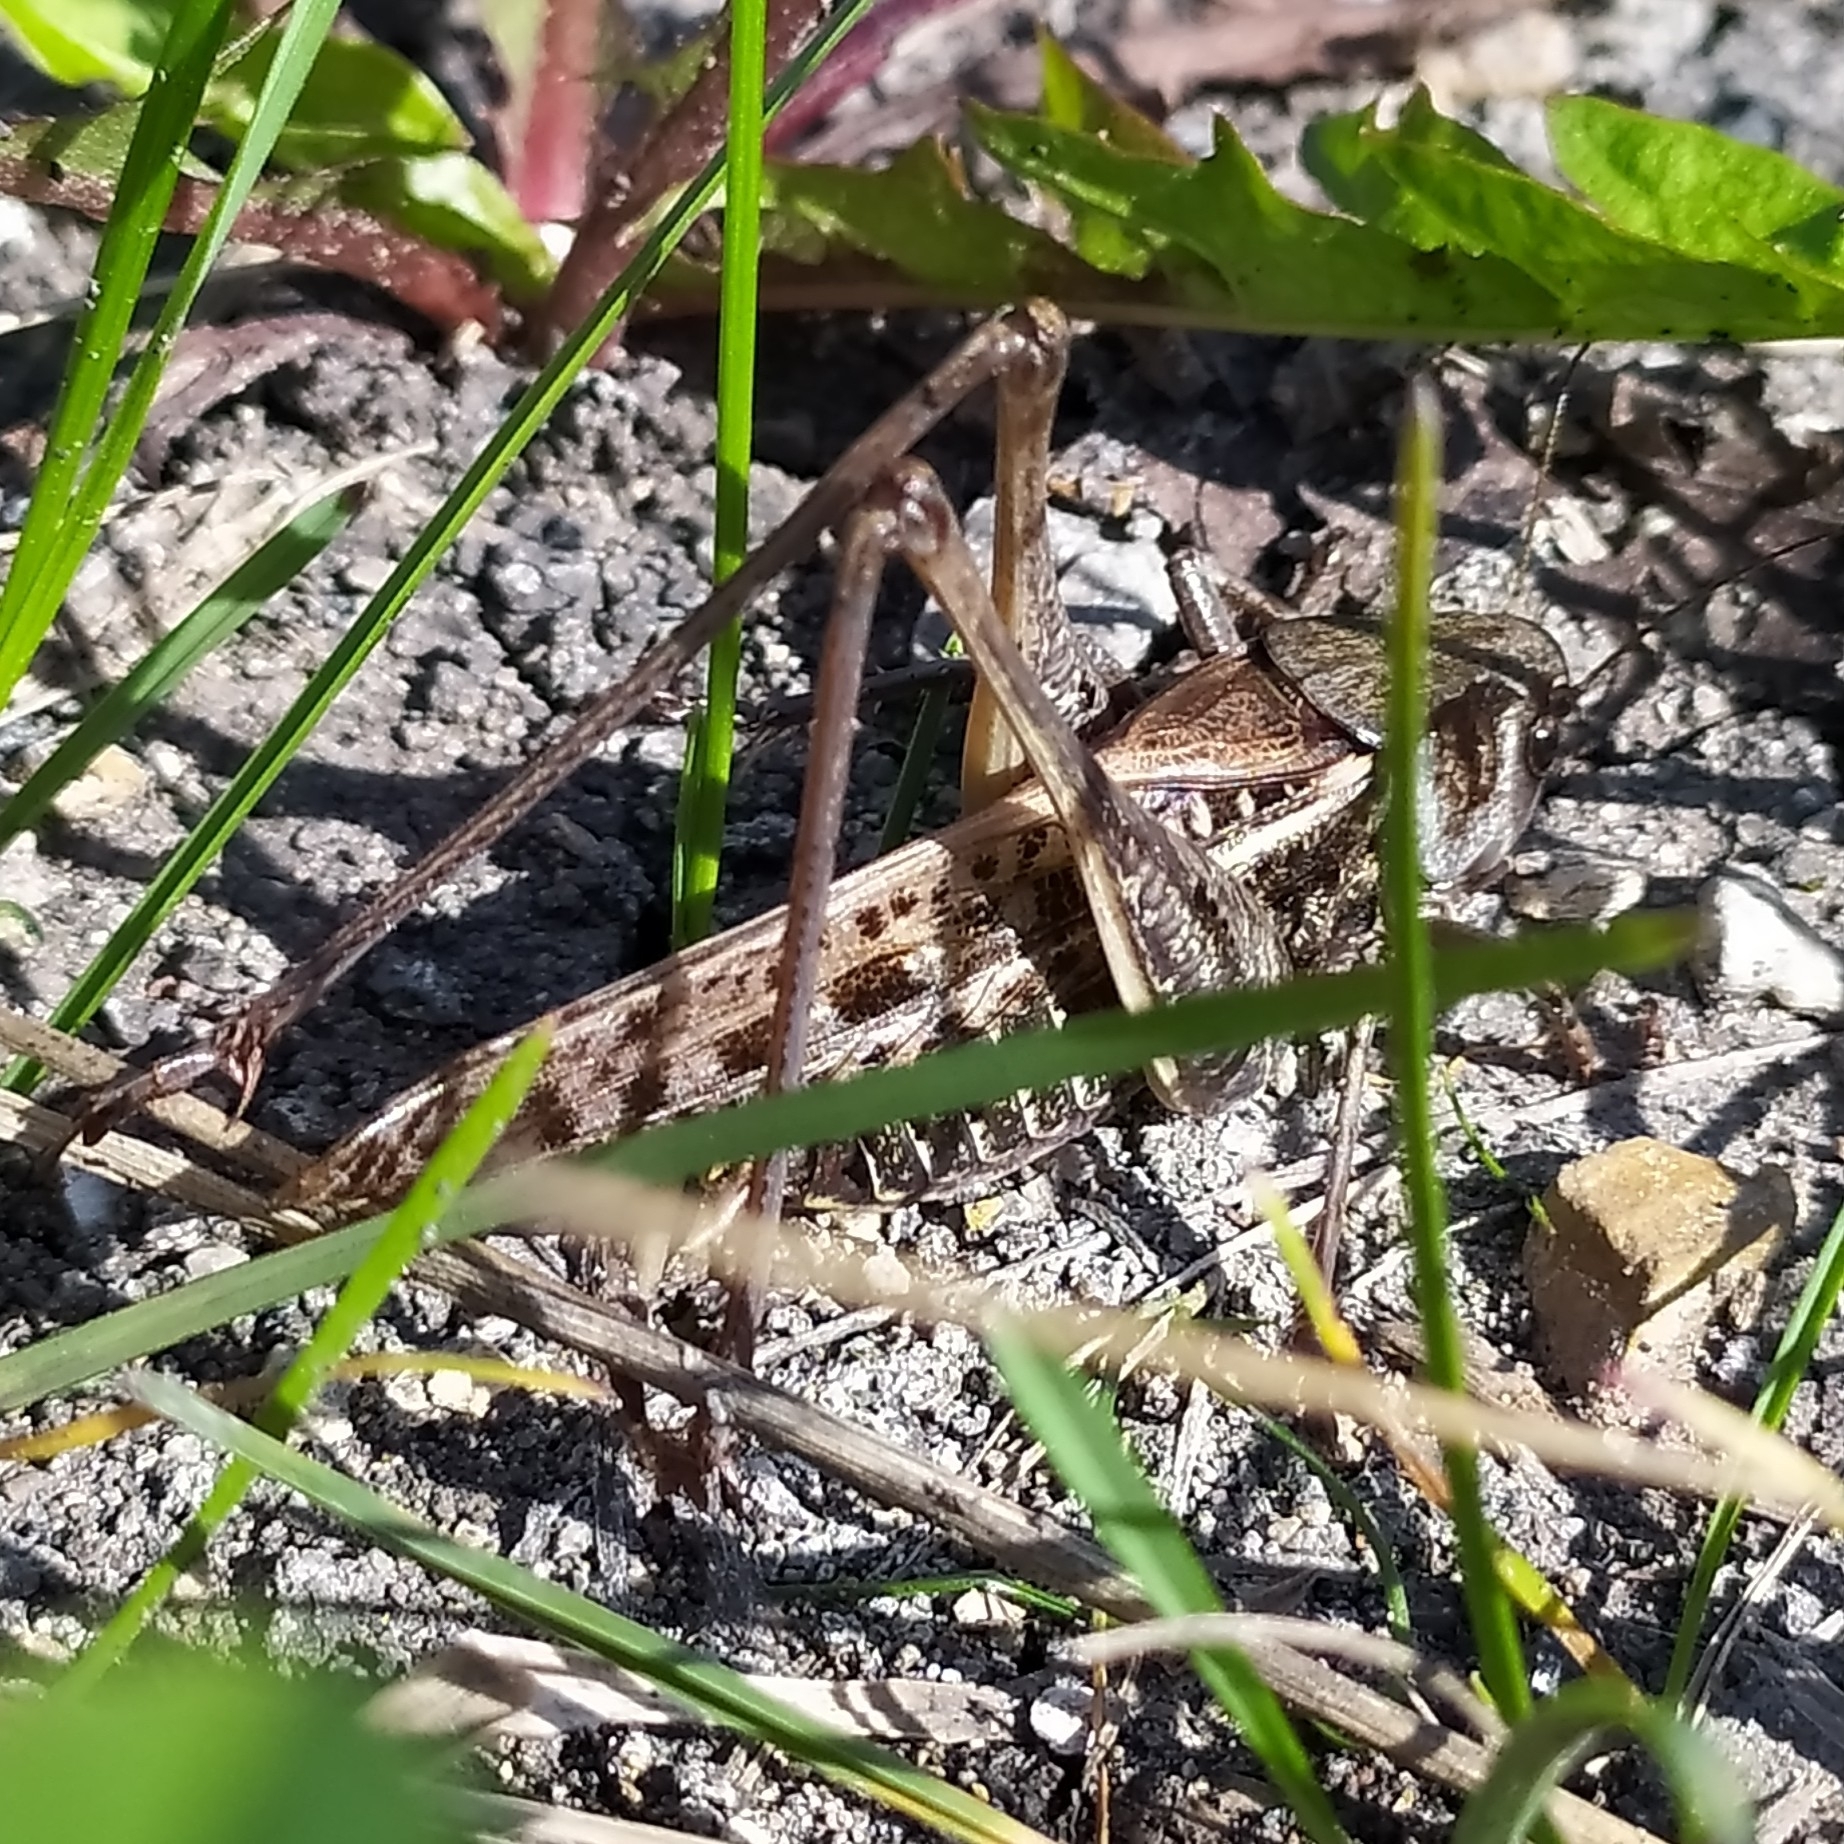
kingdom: Animalia
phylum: Arthropoda
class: Insecta
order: Orthoptera
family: Tettigoniidae
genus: Decticus
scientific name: Decticus verrucivorus
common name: Wart-biter
